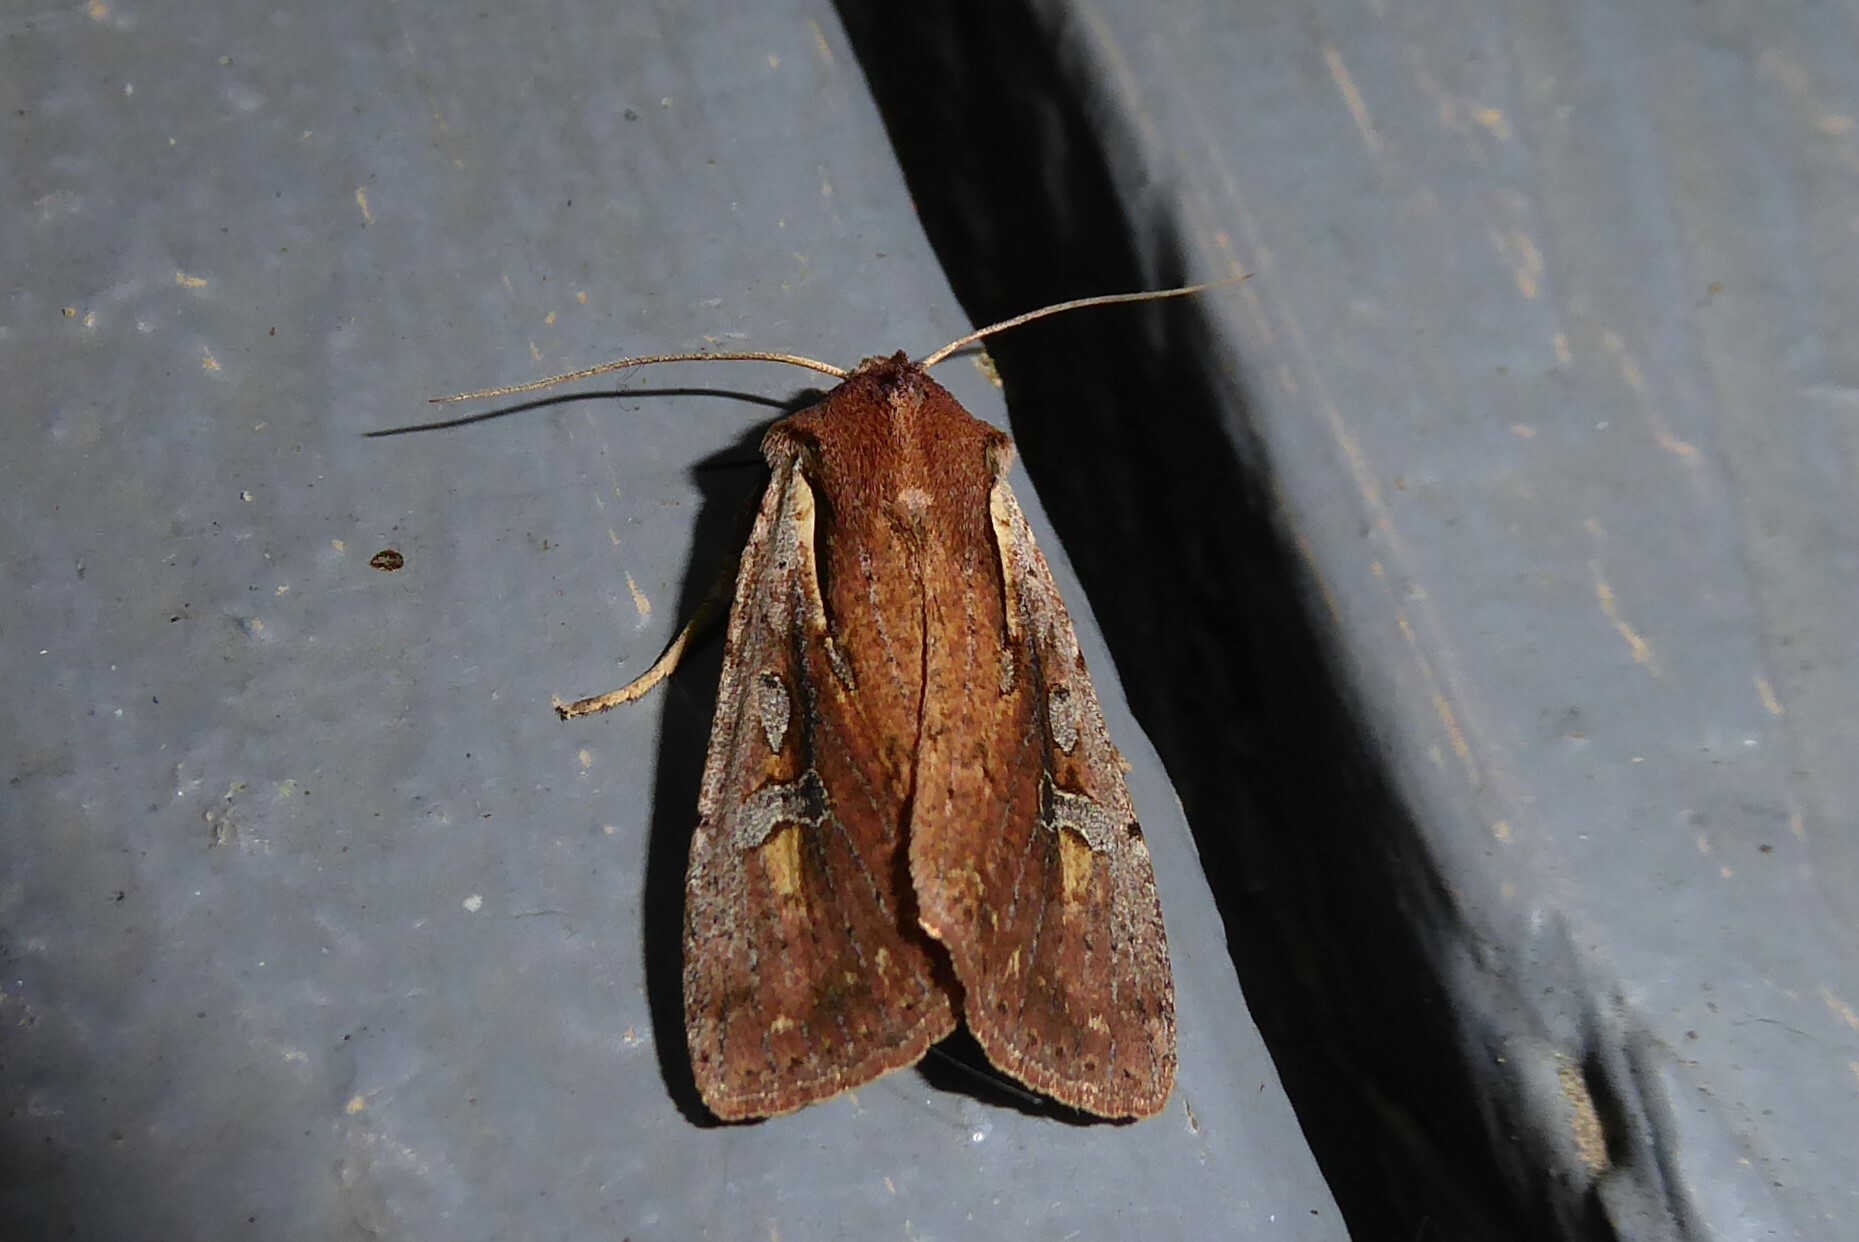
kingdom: Animalia
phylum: Arthropoda
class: Insecta
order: Lepidoptera
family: Noctuidae
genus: Ichneutica
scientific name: Ichneutica atristriga
